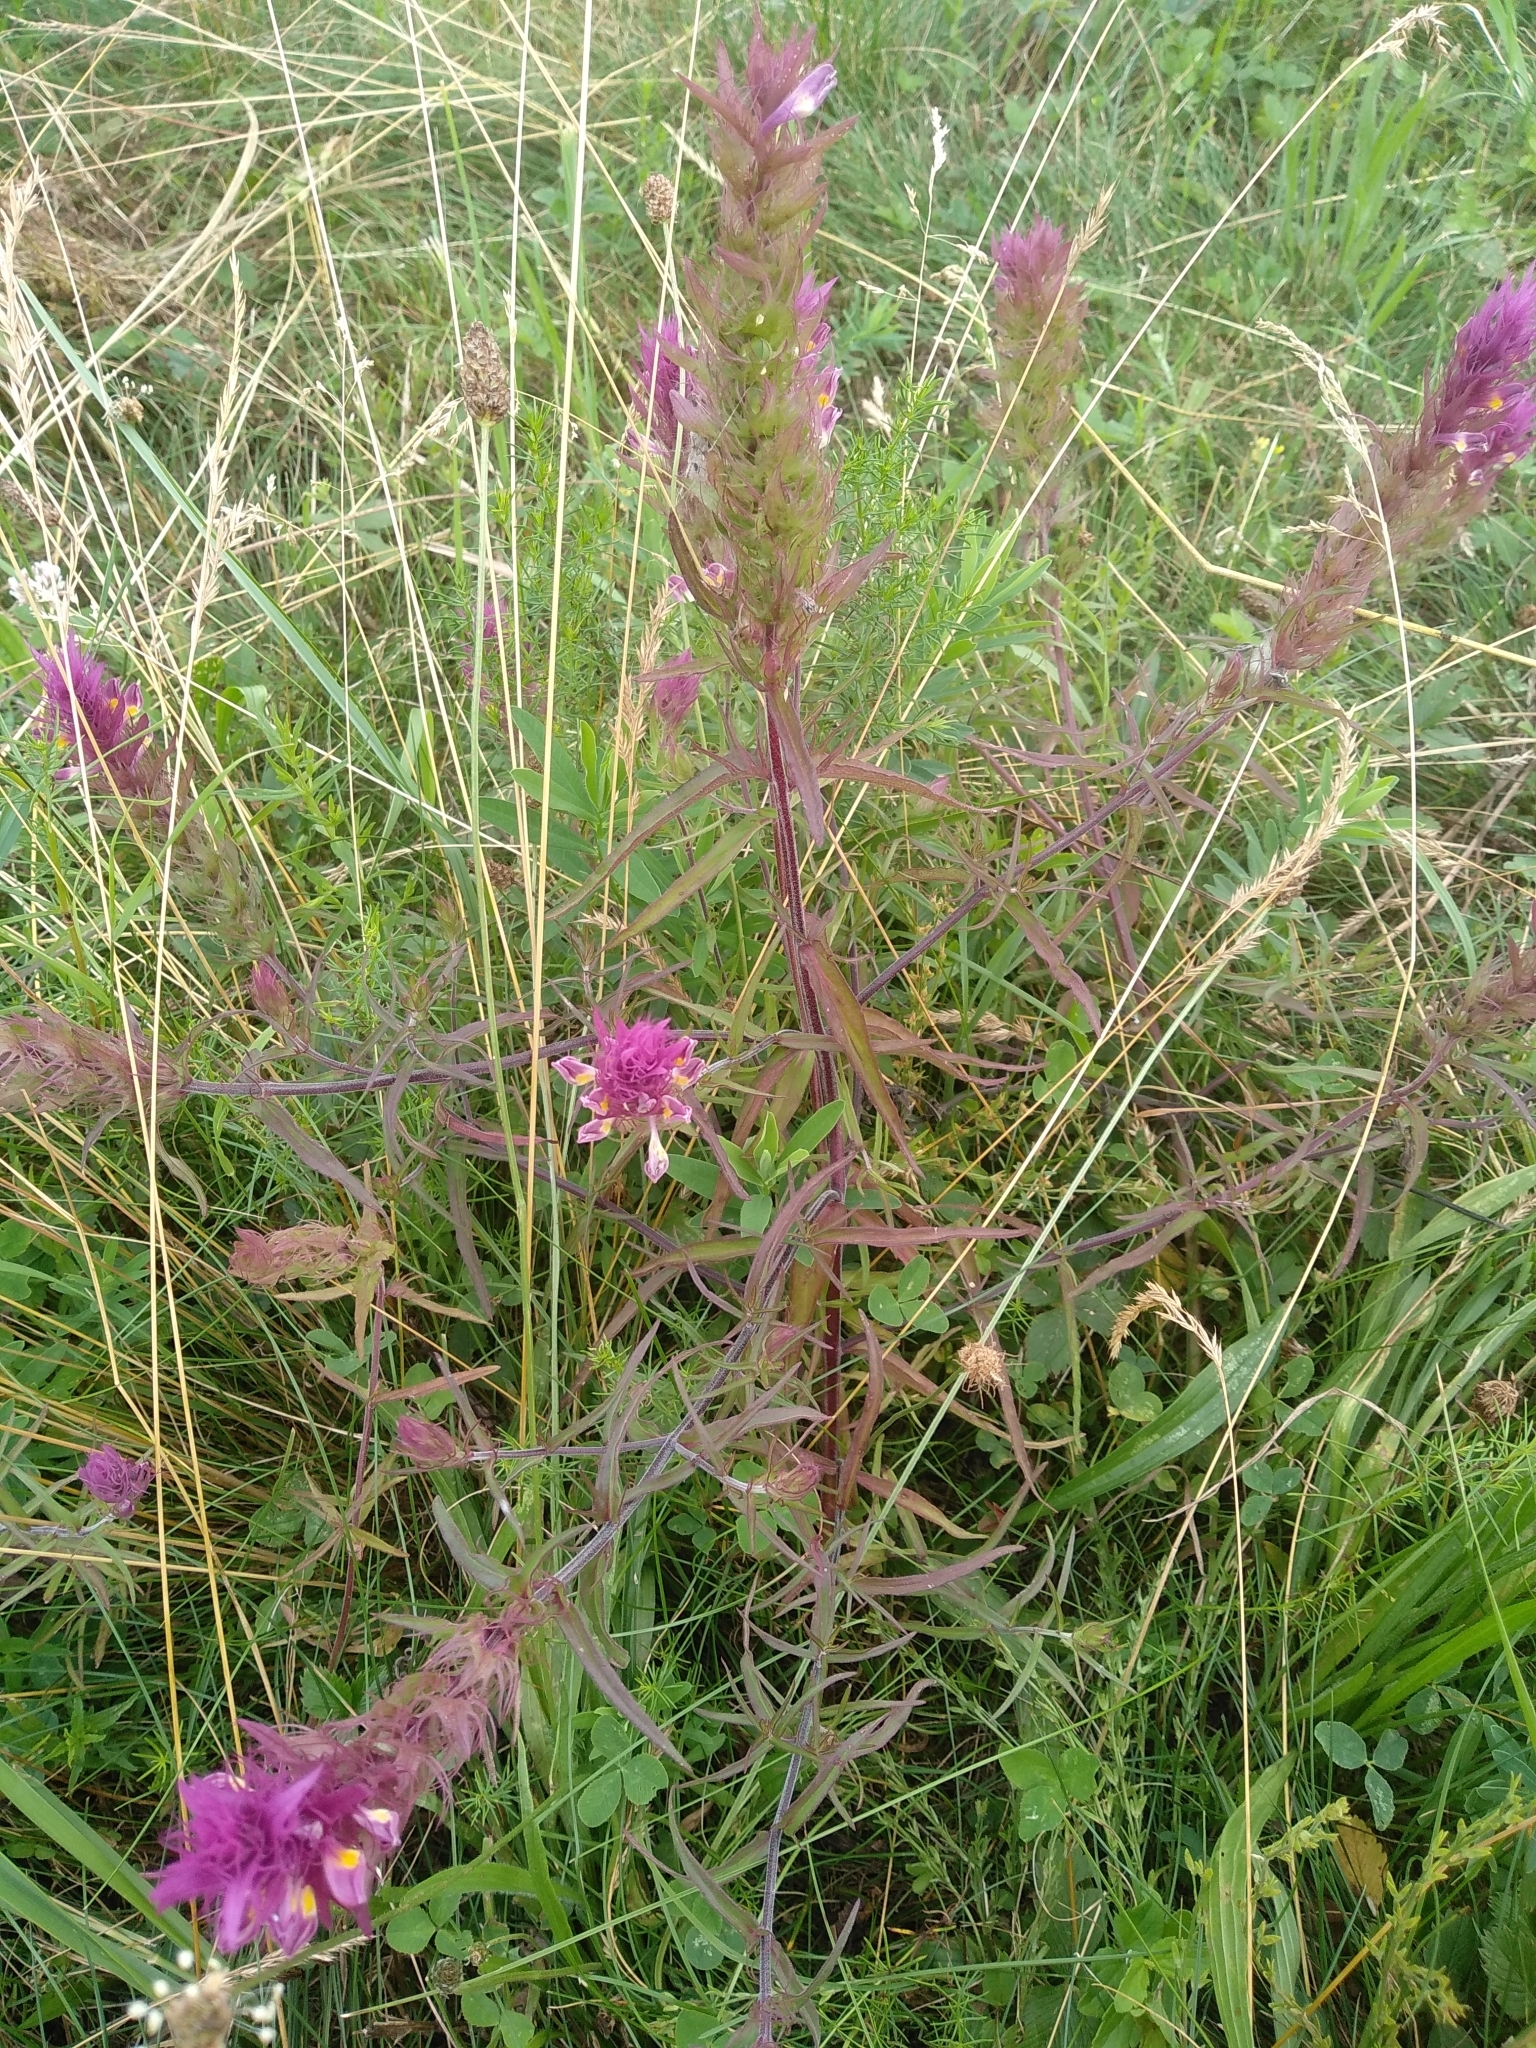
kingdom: Plantae
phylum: Tracheophyta
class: Magnoliopsida
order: Lamiales
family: Orobanchaceae
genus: Melampyrum
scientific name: Melampyrum arvense
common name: Field cow-wheat
